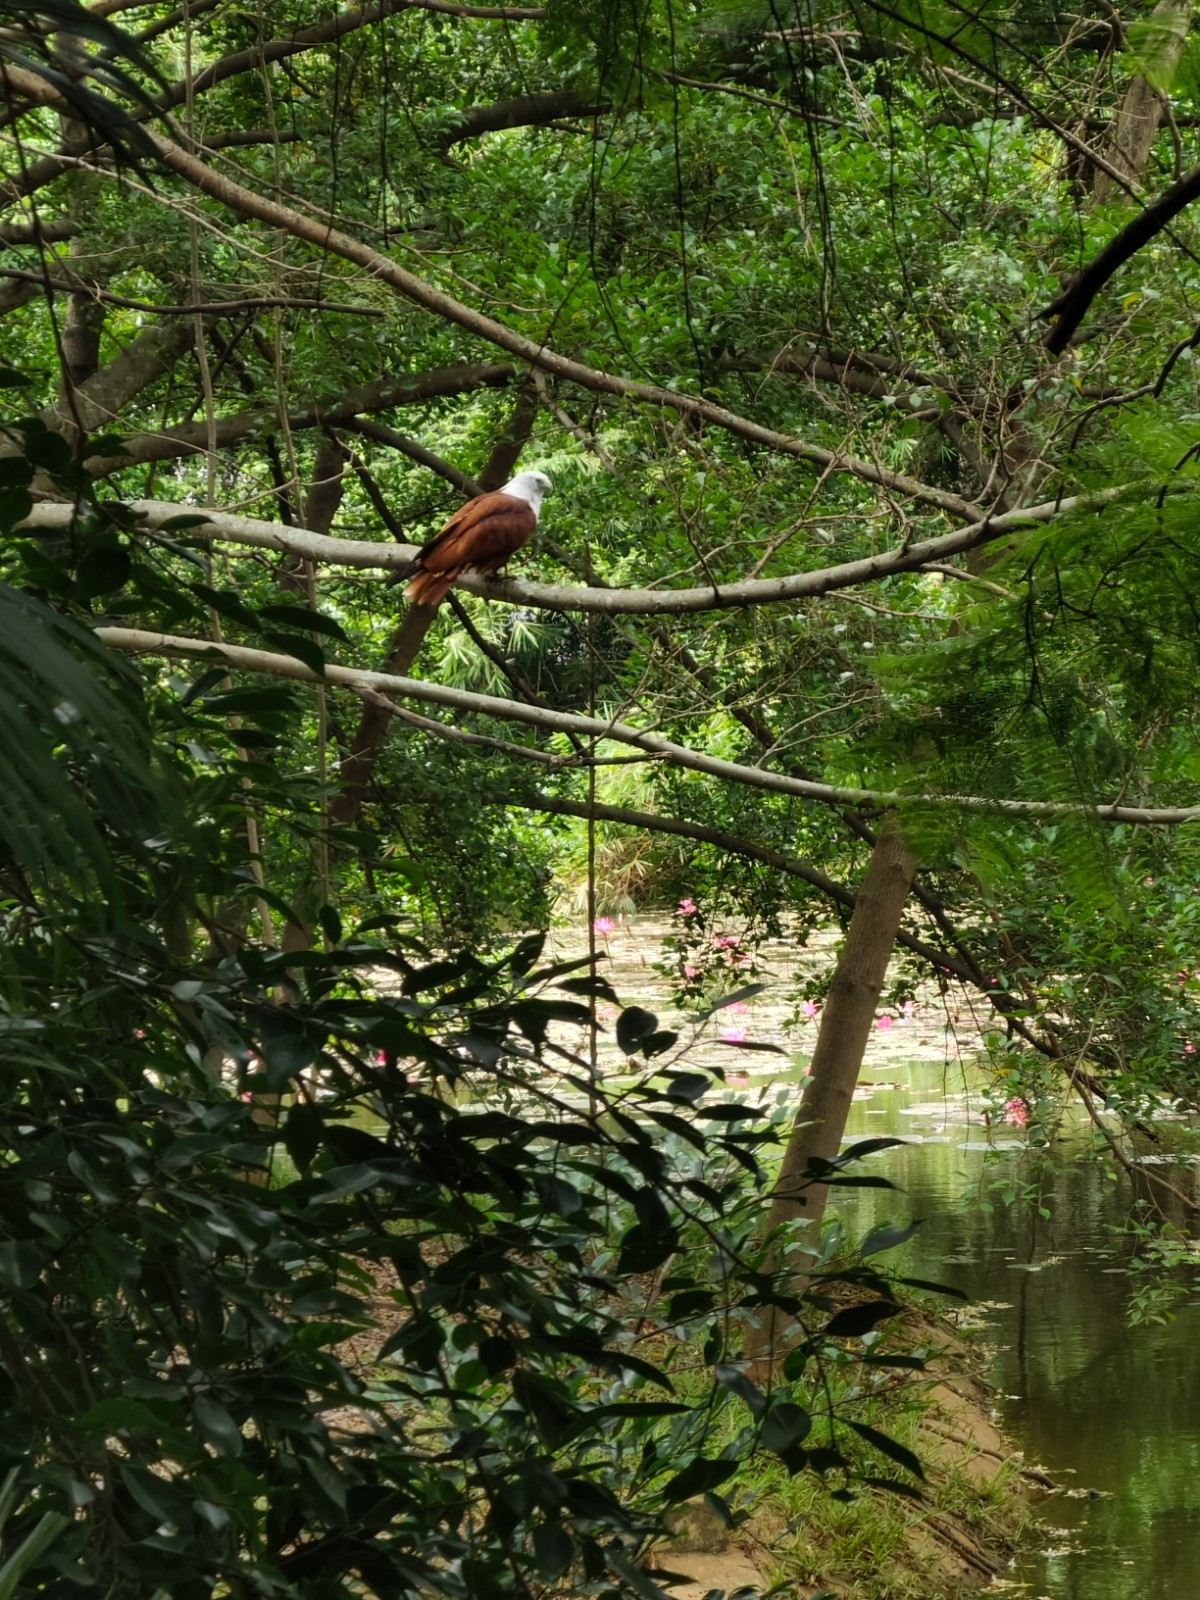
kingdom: Animalia
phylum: Chordata
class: Aves
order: Accipitriformes
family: Accipitridae
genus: Haliastur
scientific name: Haliastur indus
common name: Brahminy kite
